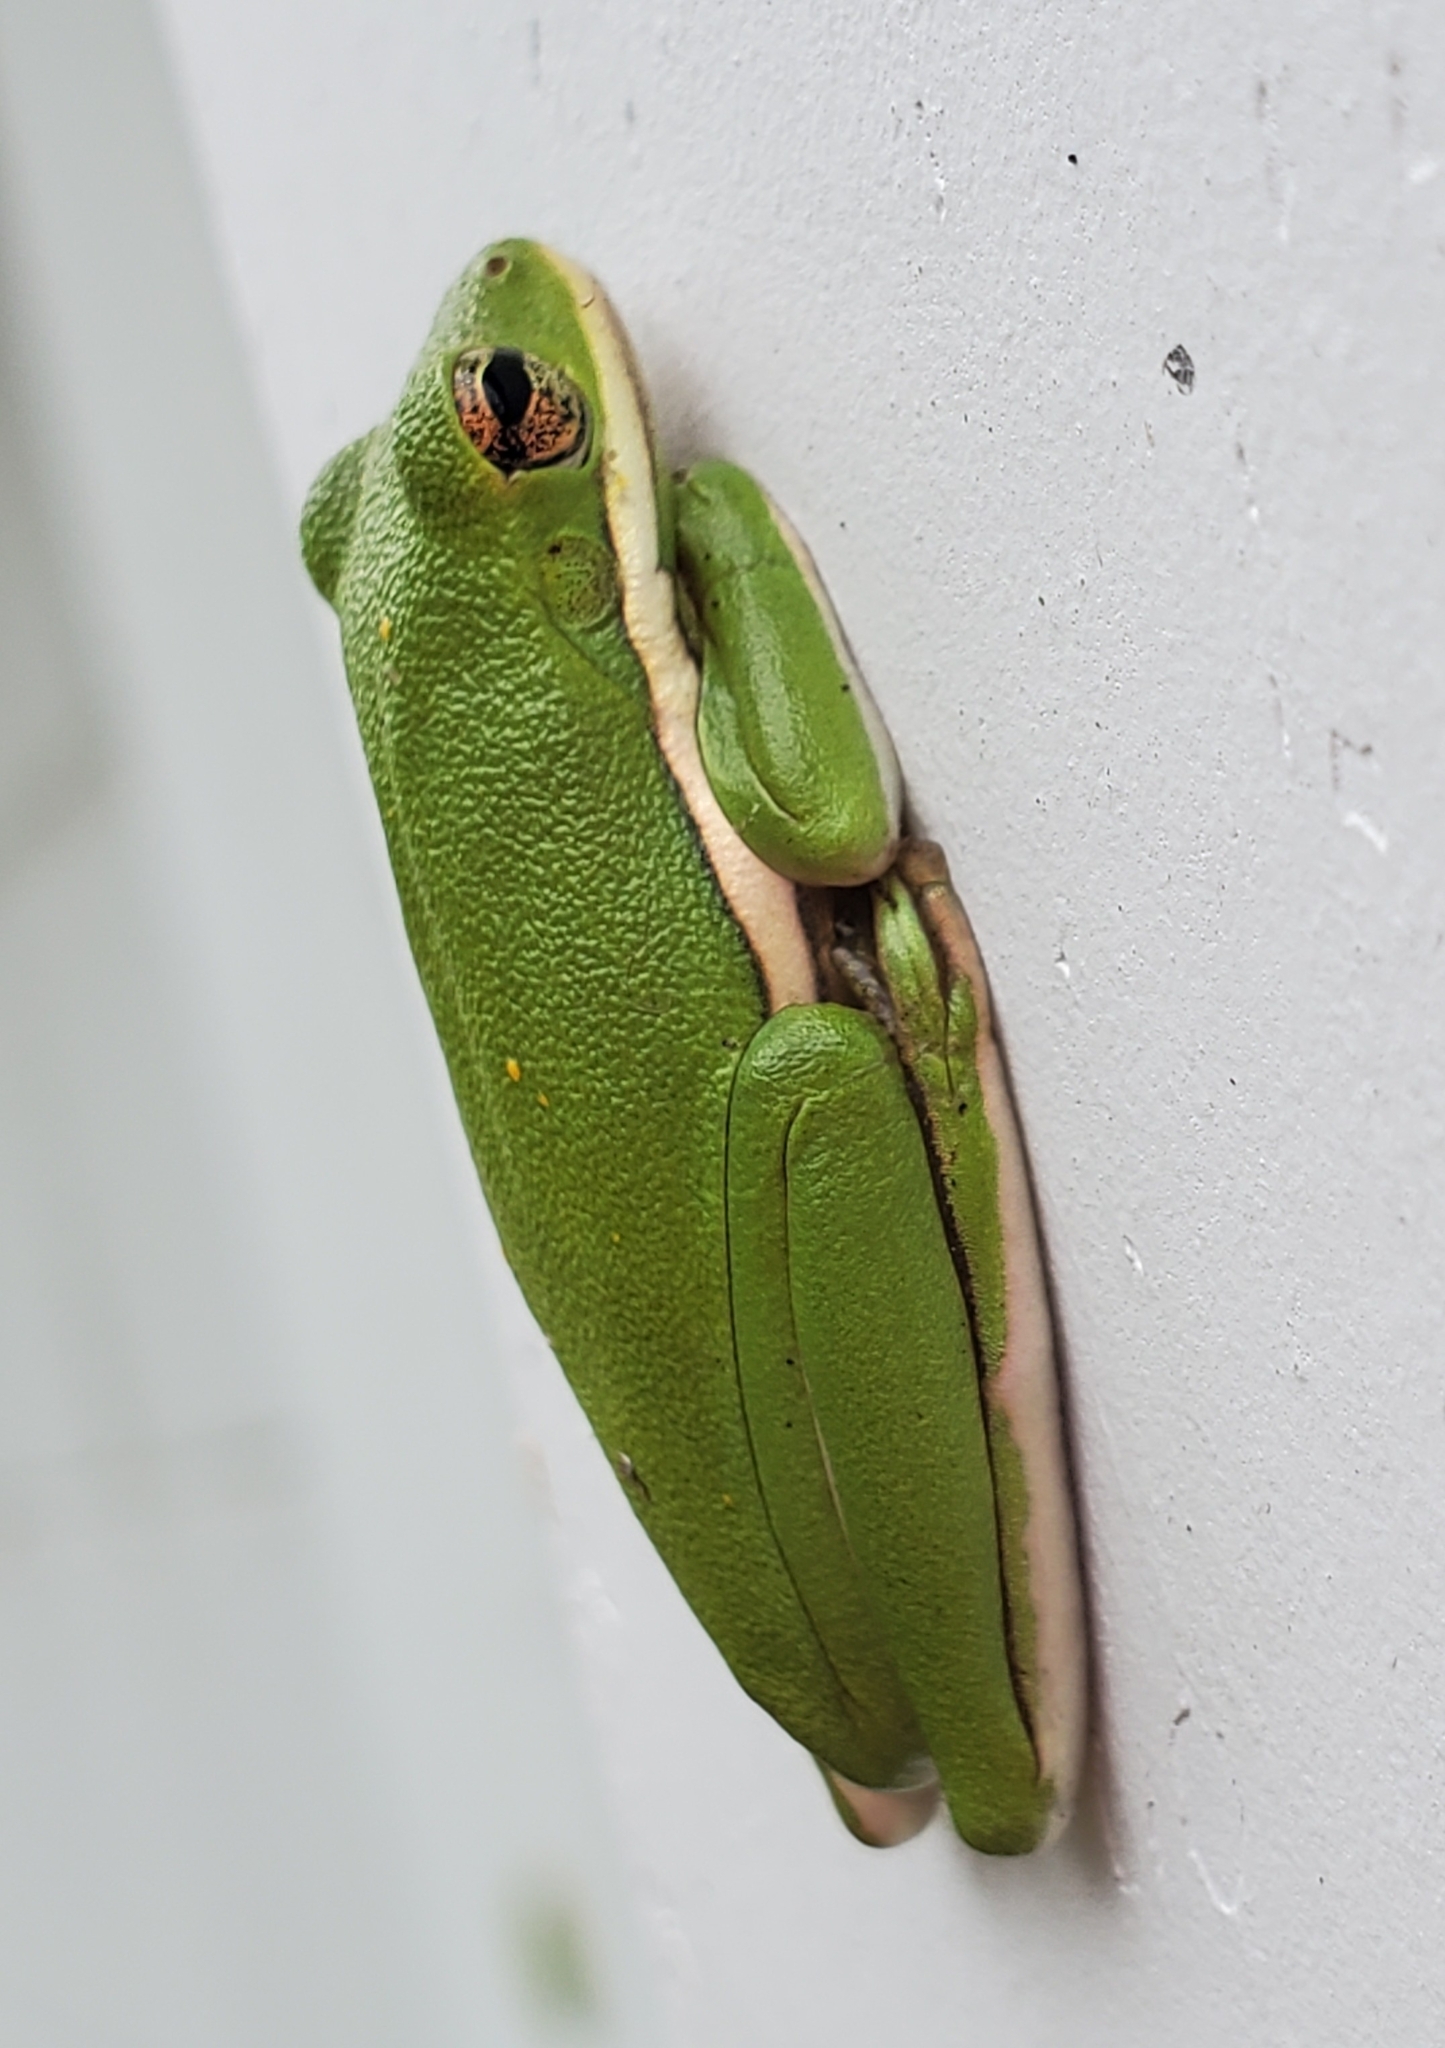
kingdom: Animalia
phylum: Chordata
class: Amphibia
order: Anura
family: Hylidae
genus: Dryophytes
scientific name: Dryophytes cinereus
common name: Green treefrog
